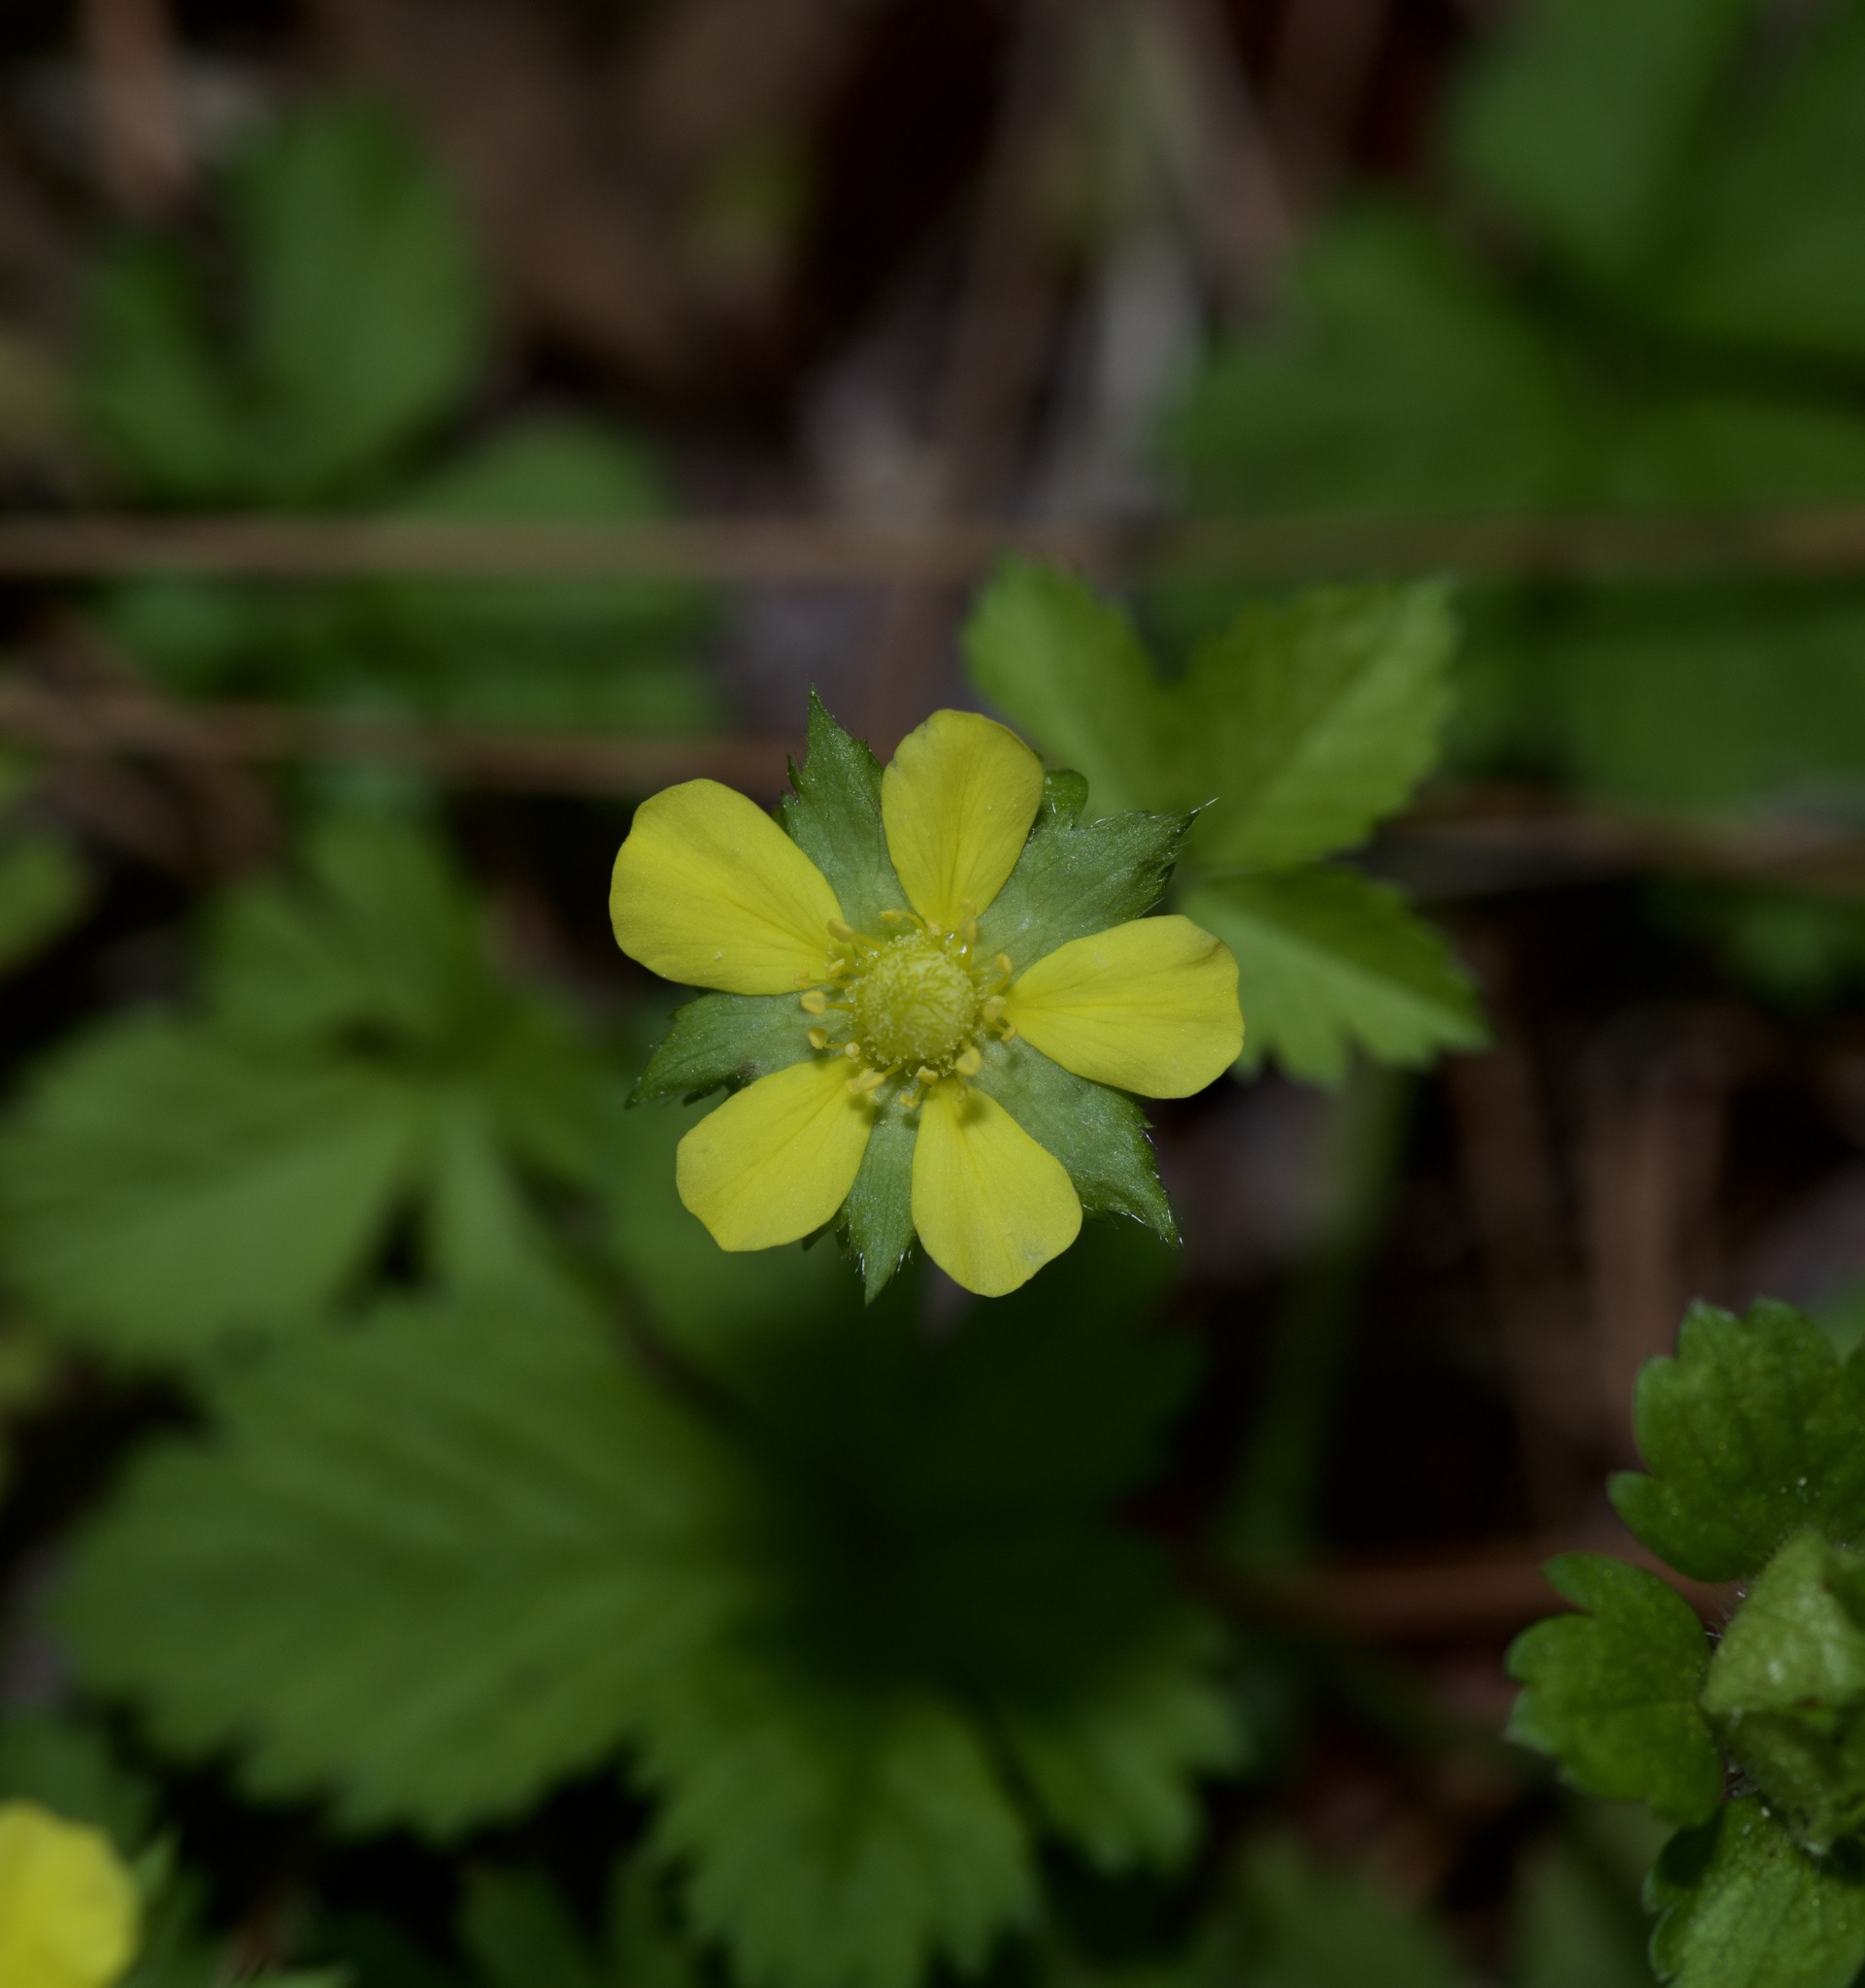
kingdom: Plantae
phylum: Tracheophyta
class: Magnoliopsida
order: Rosales
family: Rosaceae
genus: Potentilla
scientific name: Potentilla indica
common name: Yellow-flowered strawberry
